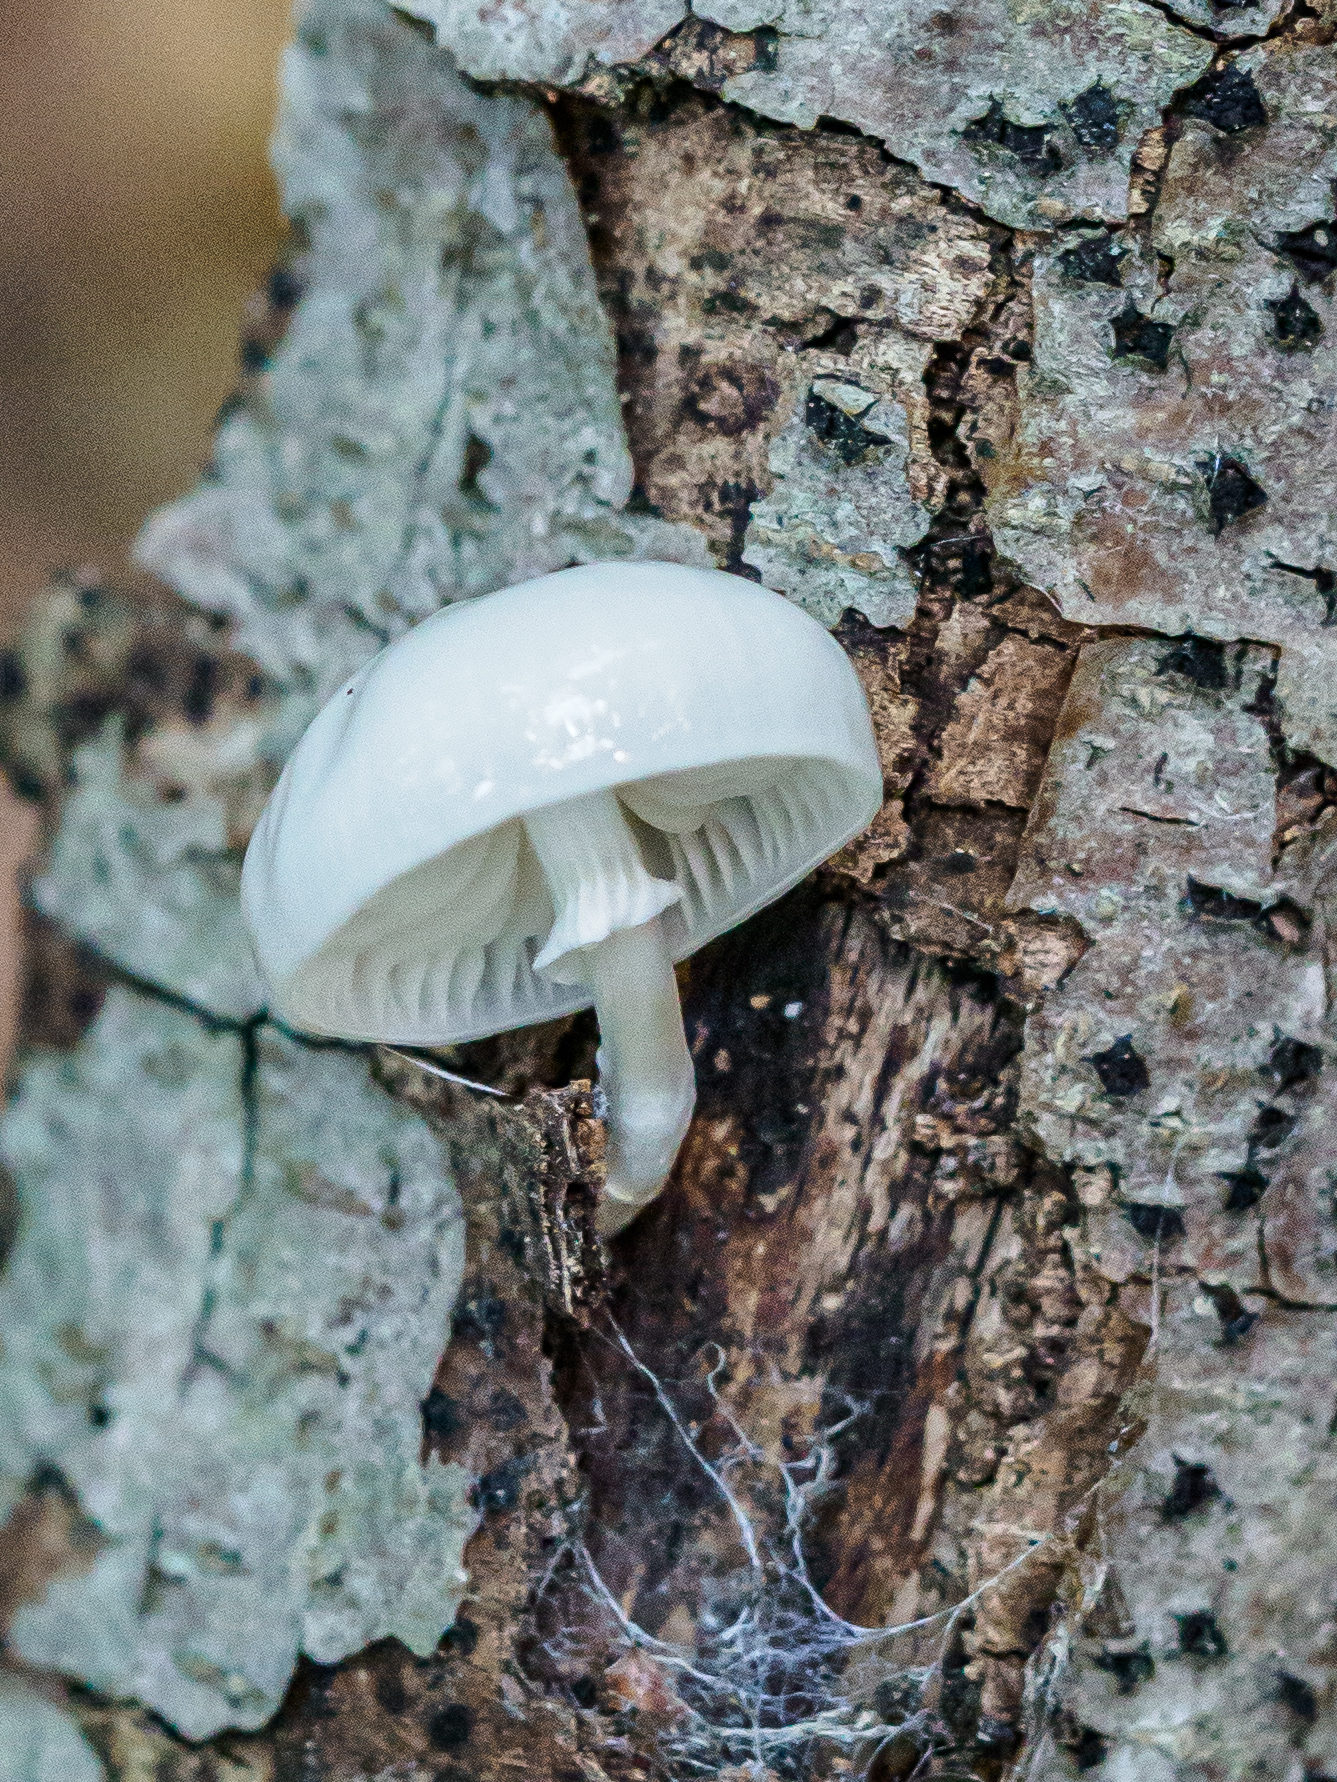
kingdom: Fungi
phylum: Basidiomycota
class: Agaricomycetes
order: Agaricales
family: Physalacriaceae
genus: Mucidula
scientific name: Mucidula mucida
